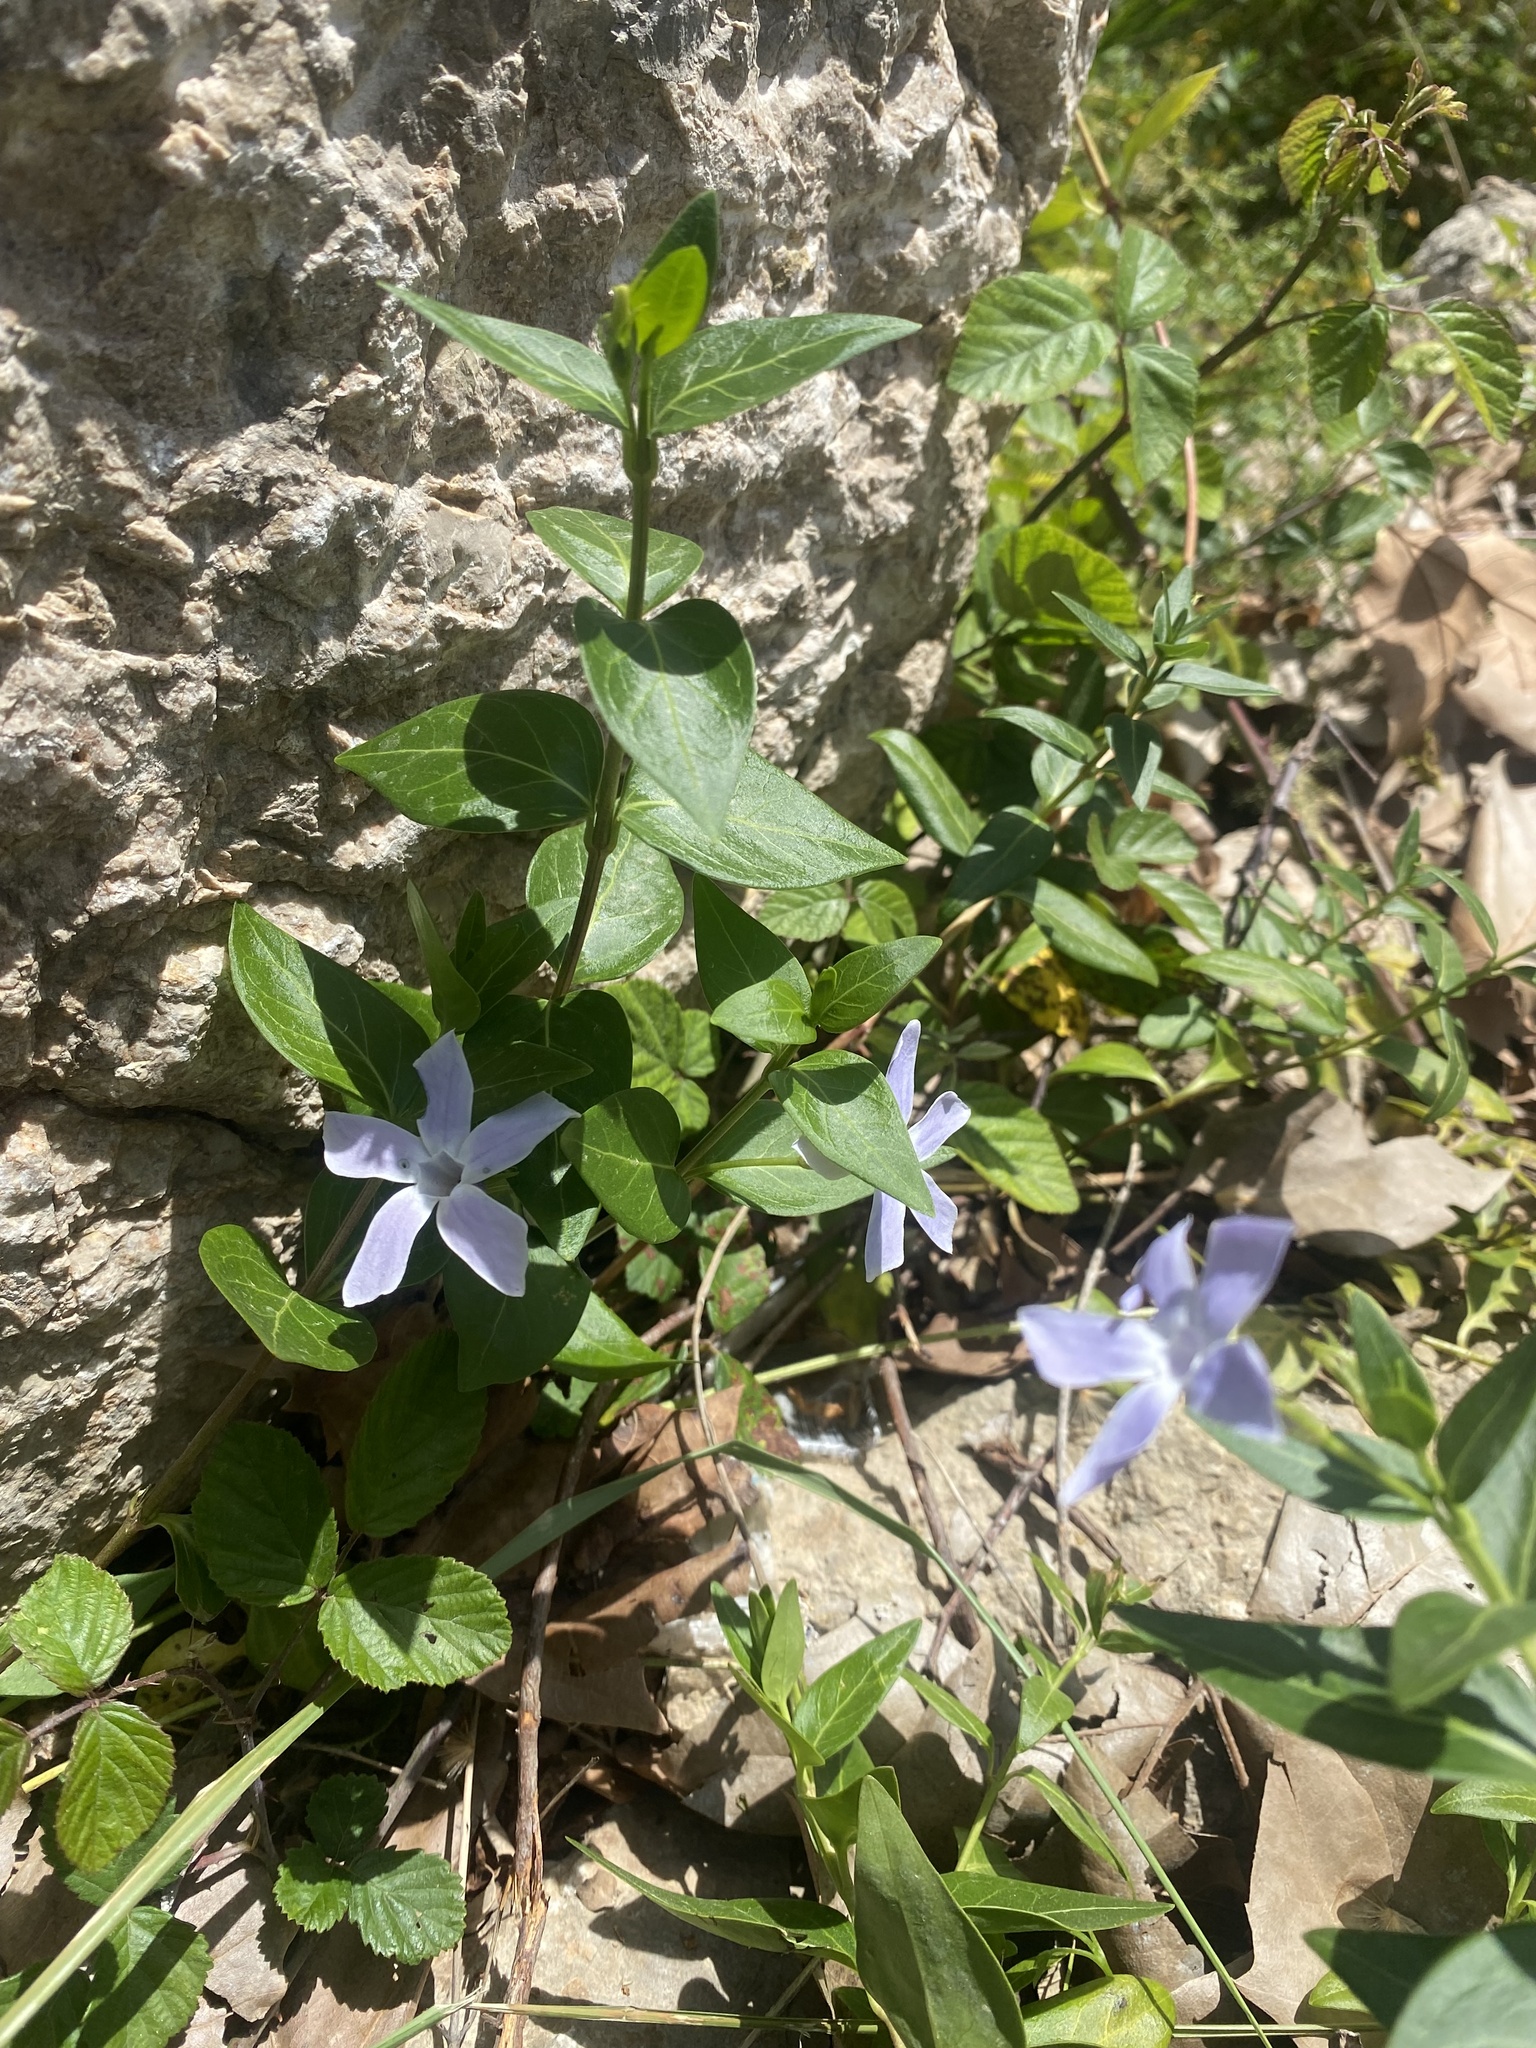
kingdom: Plantae
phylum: Tracheophyta
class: Magnoliopsida
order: Gentianales
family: Apocynaceae
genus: Vinca
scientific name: Vinca difformis
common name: Intermediate periwinkle
